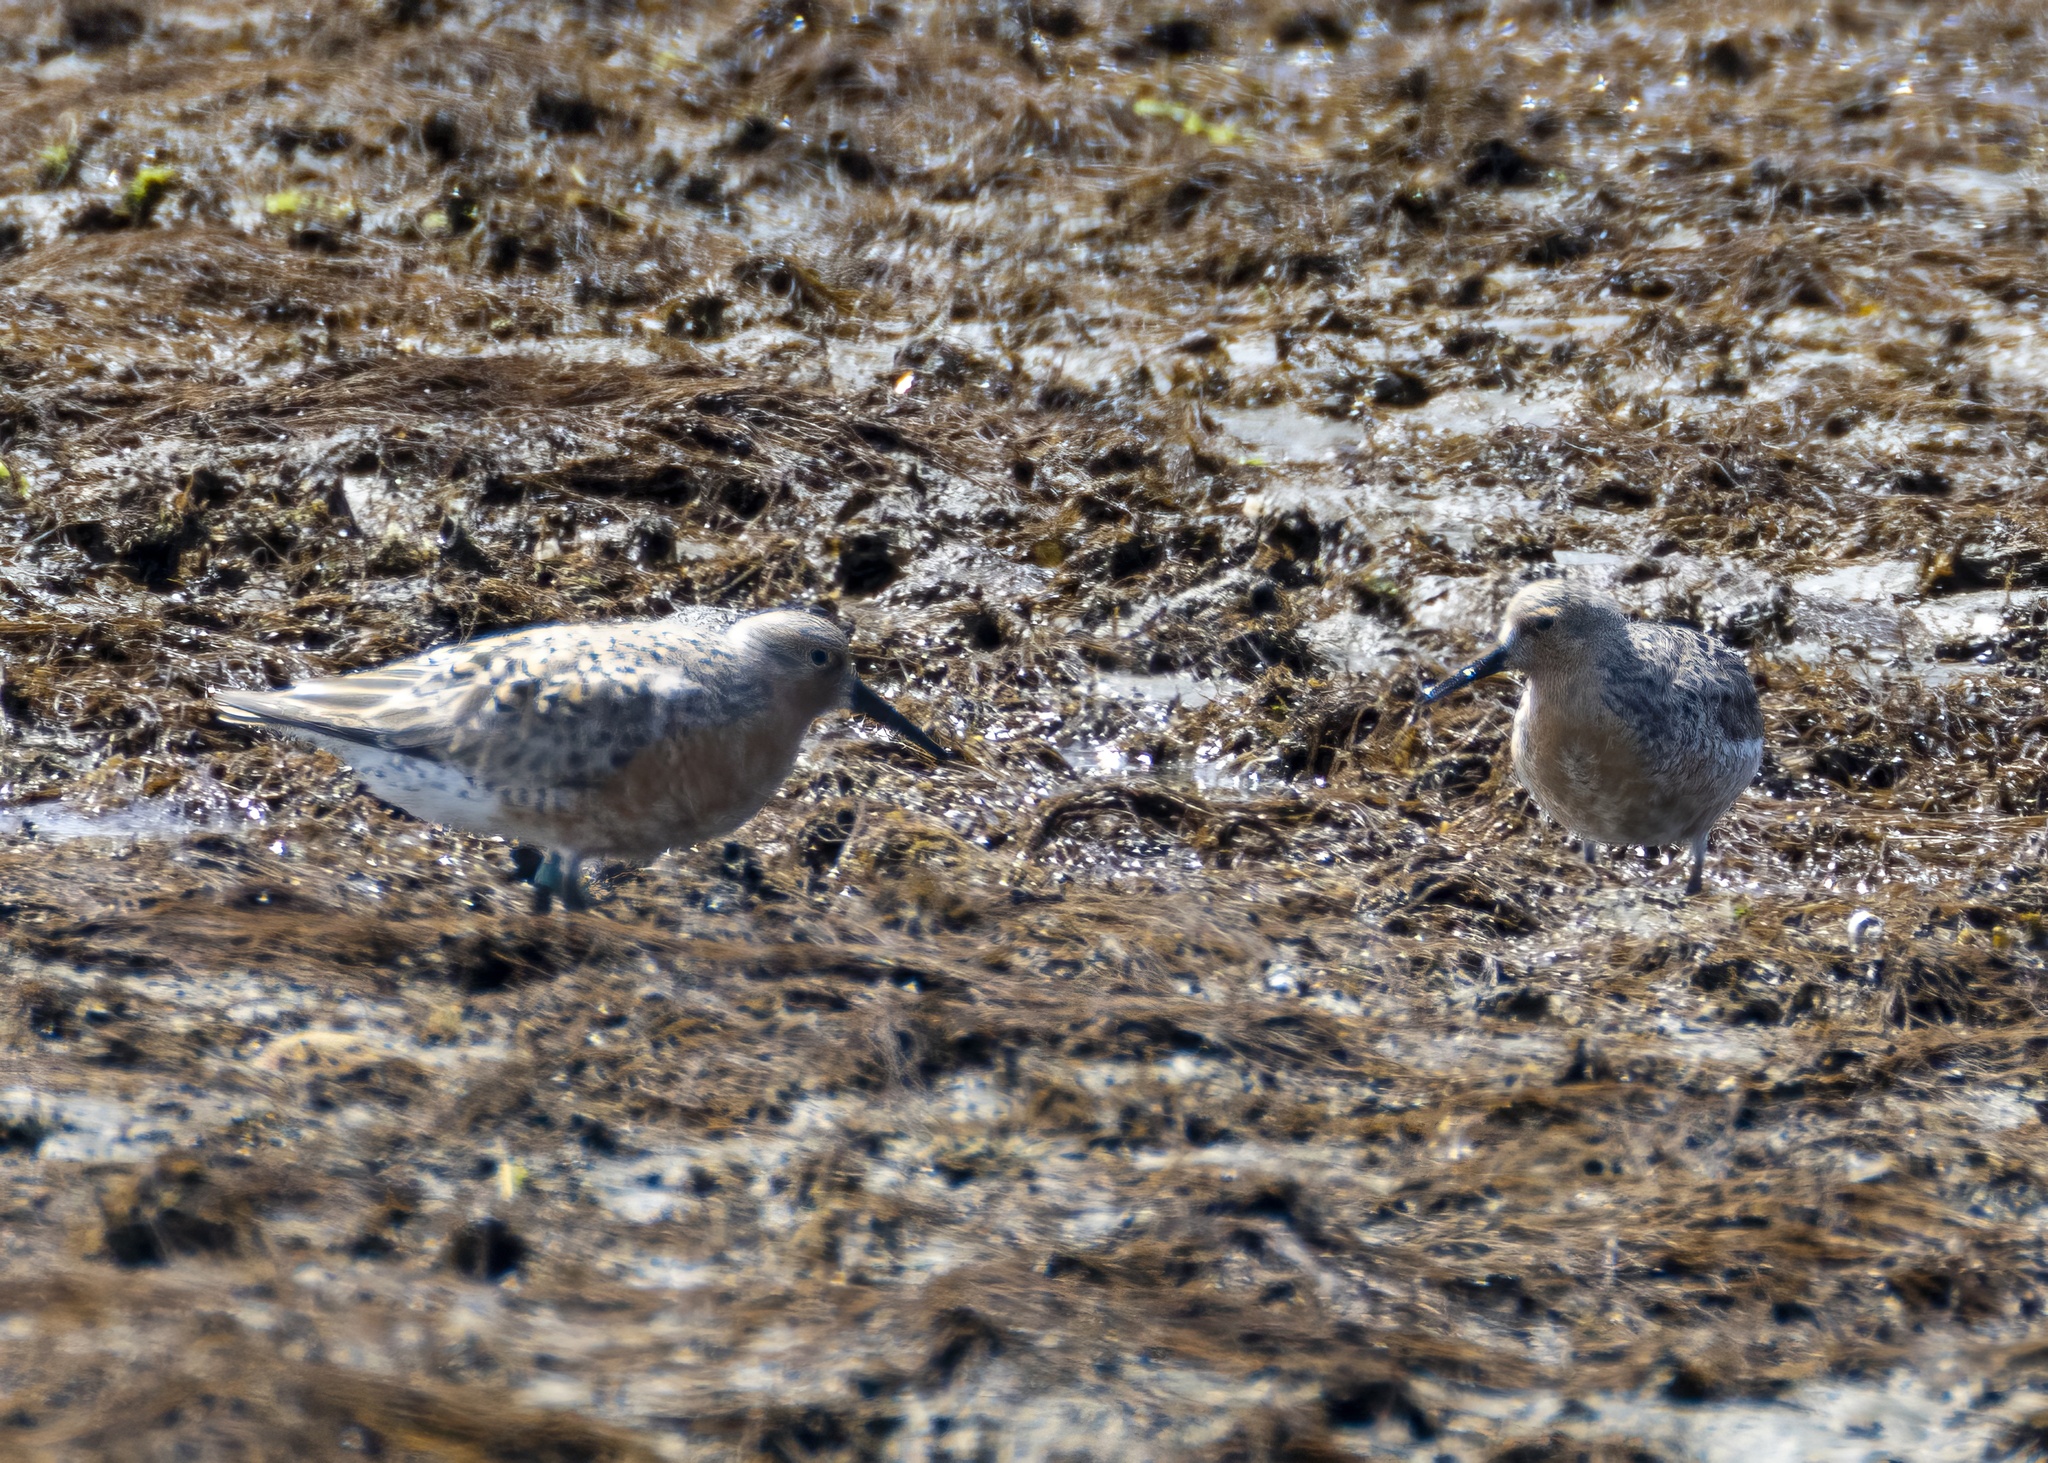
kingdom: Animalia
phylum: Chordata
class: Aves
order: Charadriiformes
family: Scolopacidae
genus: Calidris
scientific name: Calidris canutus
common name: Red knot
